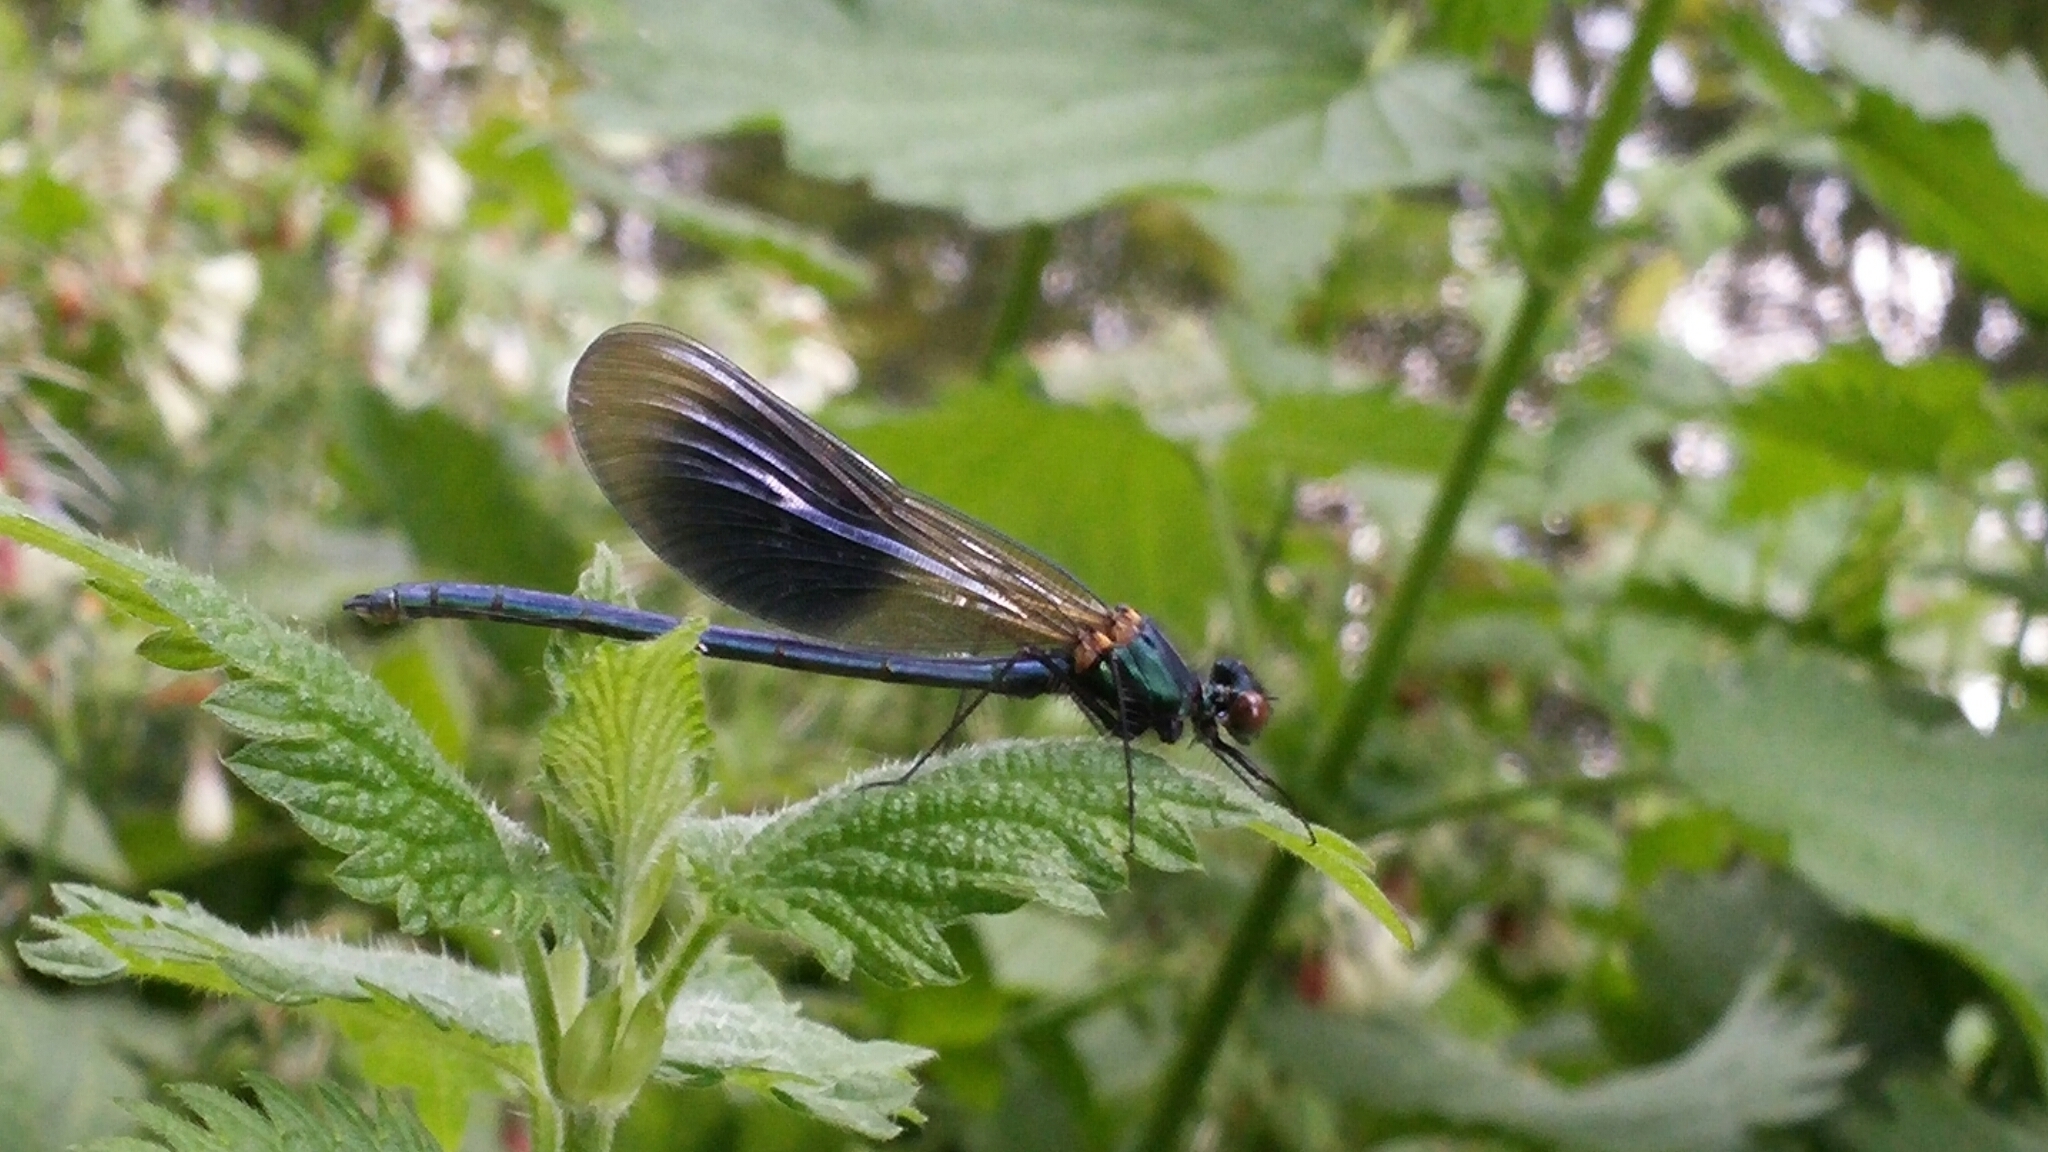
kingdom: Animalia
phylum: Arthropoda
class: Insecta
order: Odonata
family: Calopterygidae
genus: Calopteryx
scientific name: Calopteryx splendens
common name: Banded demoiselle
